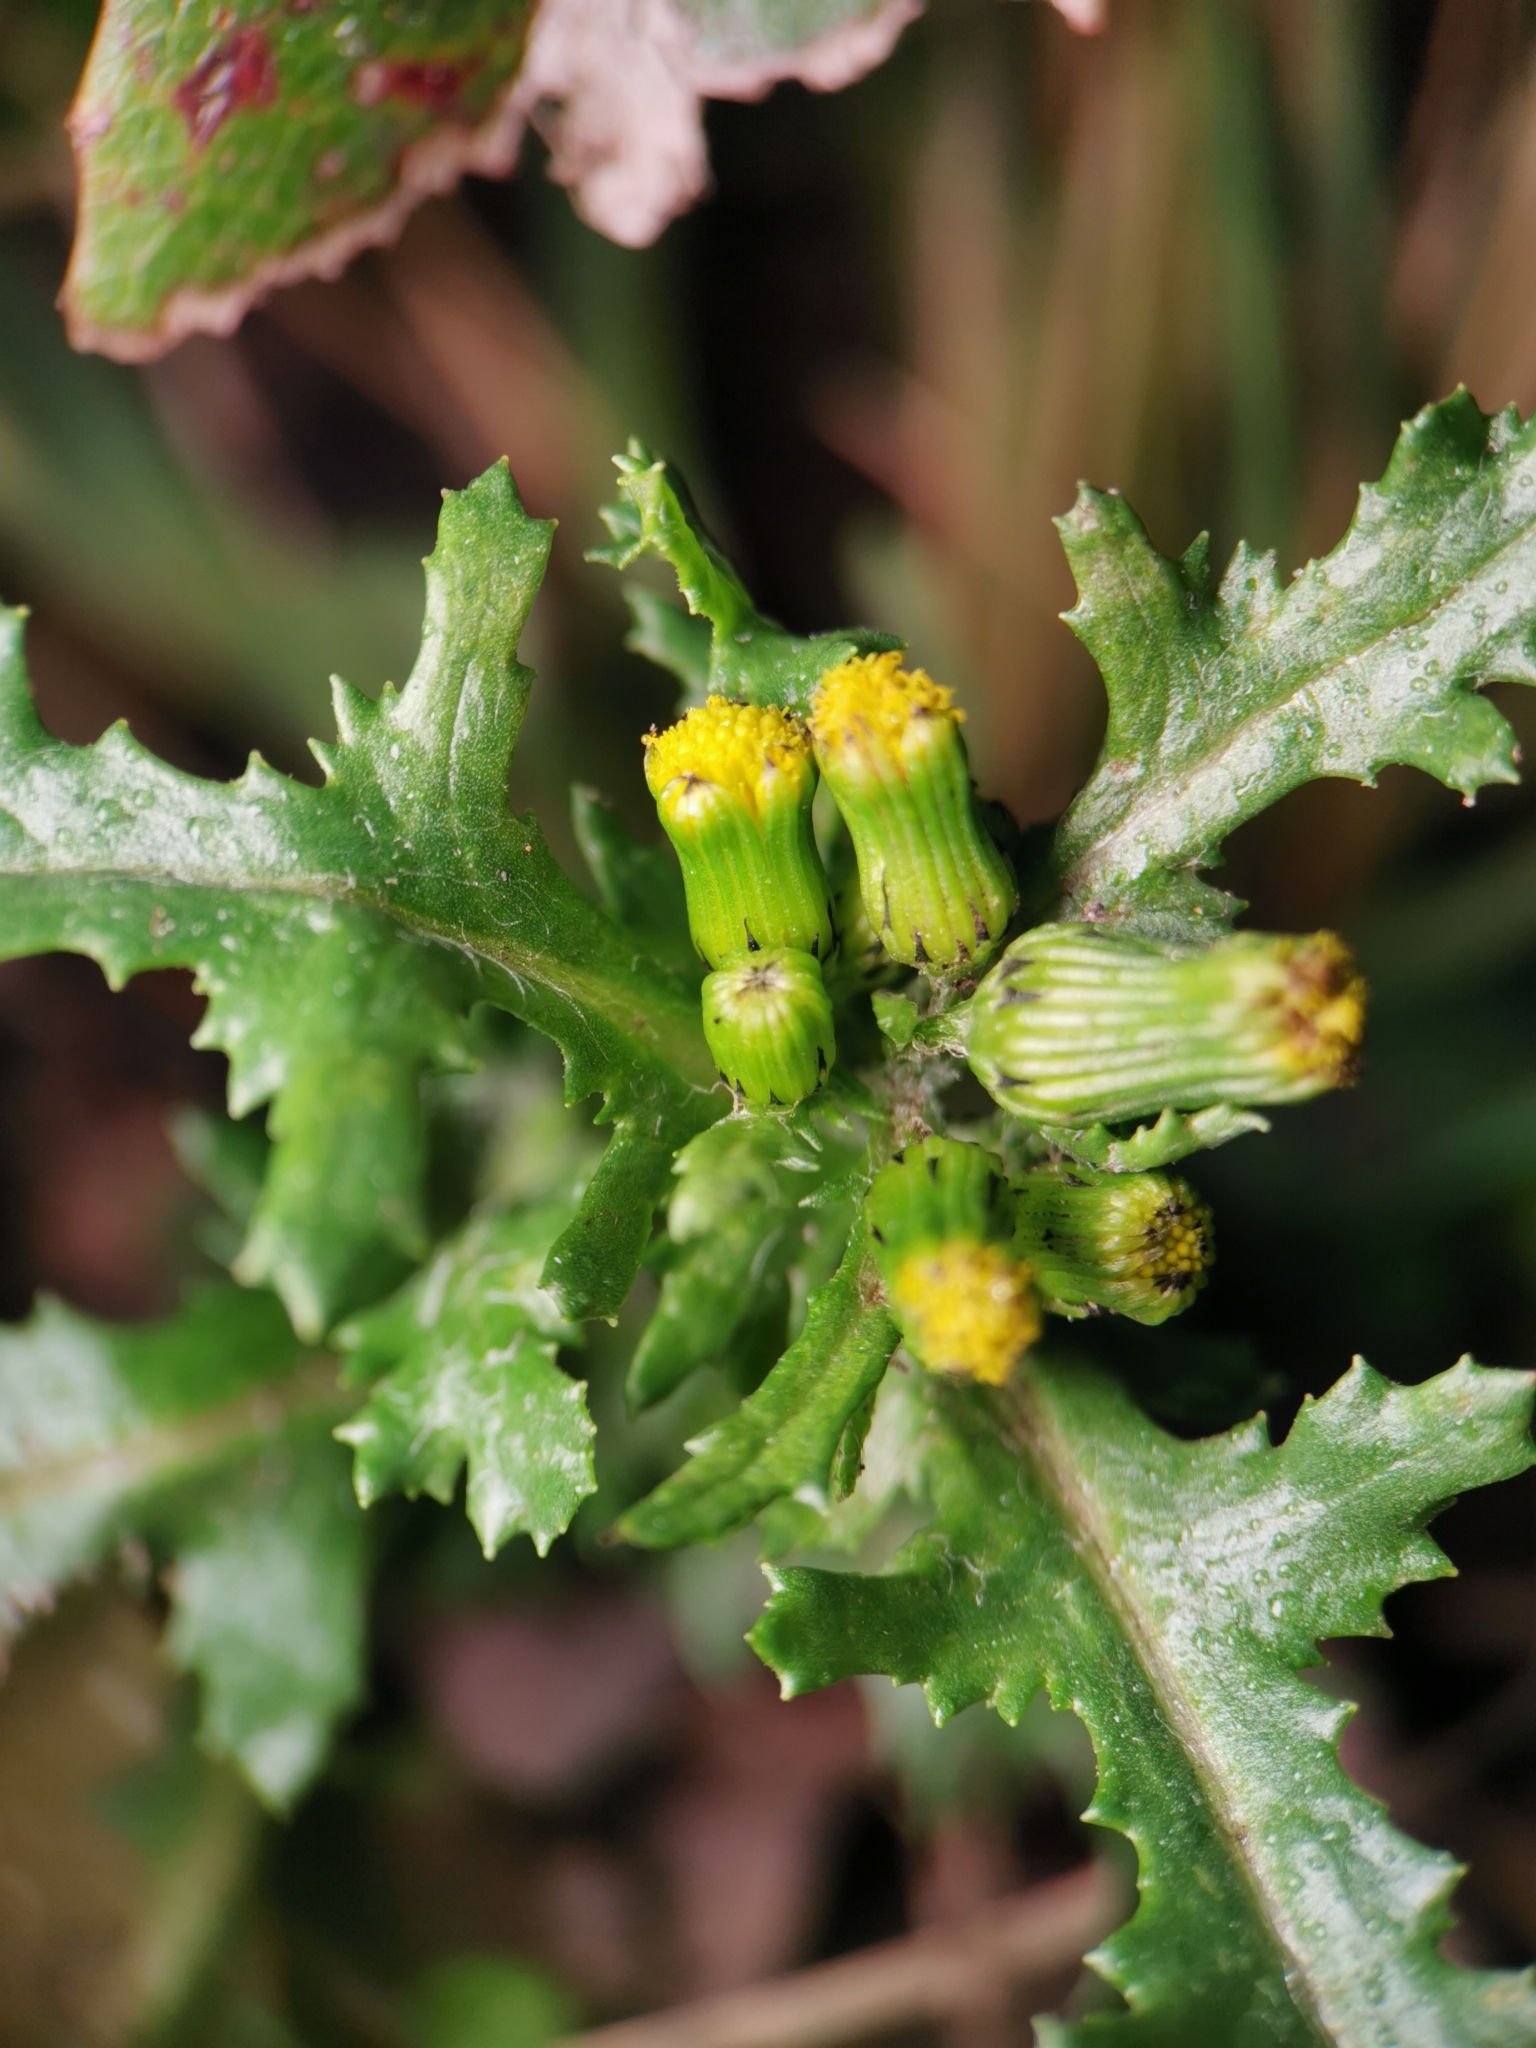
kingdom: Plantae
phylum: Tracheophyta
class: Magnoliopsida
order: Asterales
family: Asteraceae
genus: Senecio
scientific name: Senecio vulgaris
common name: Old-man-in-the-spring
